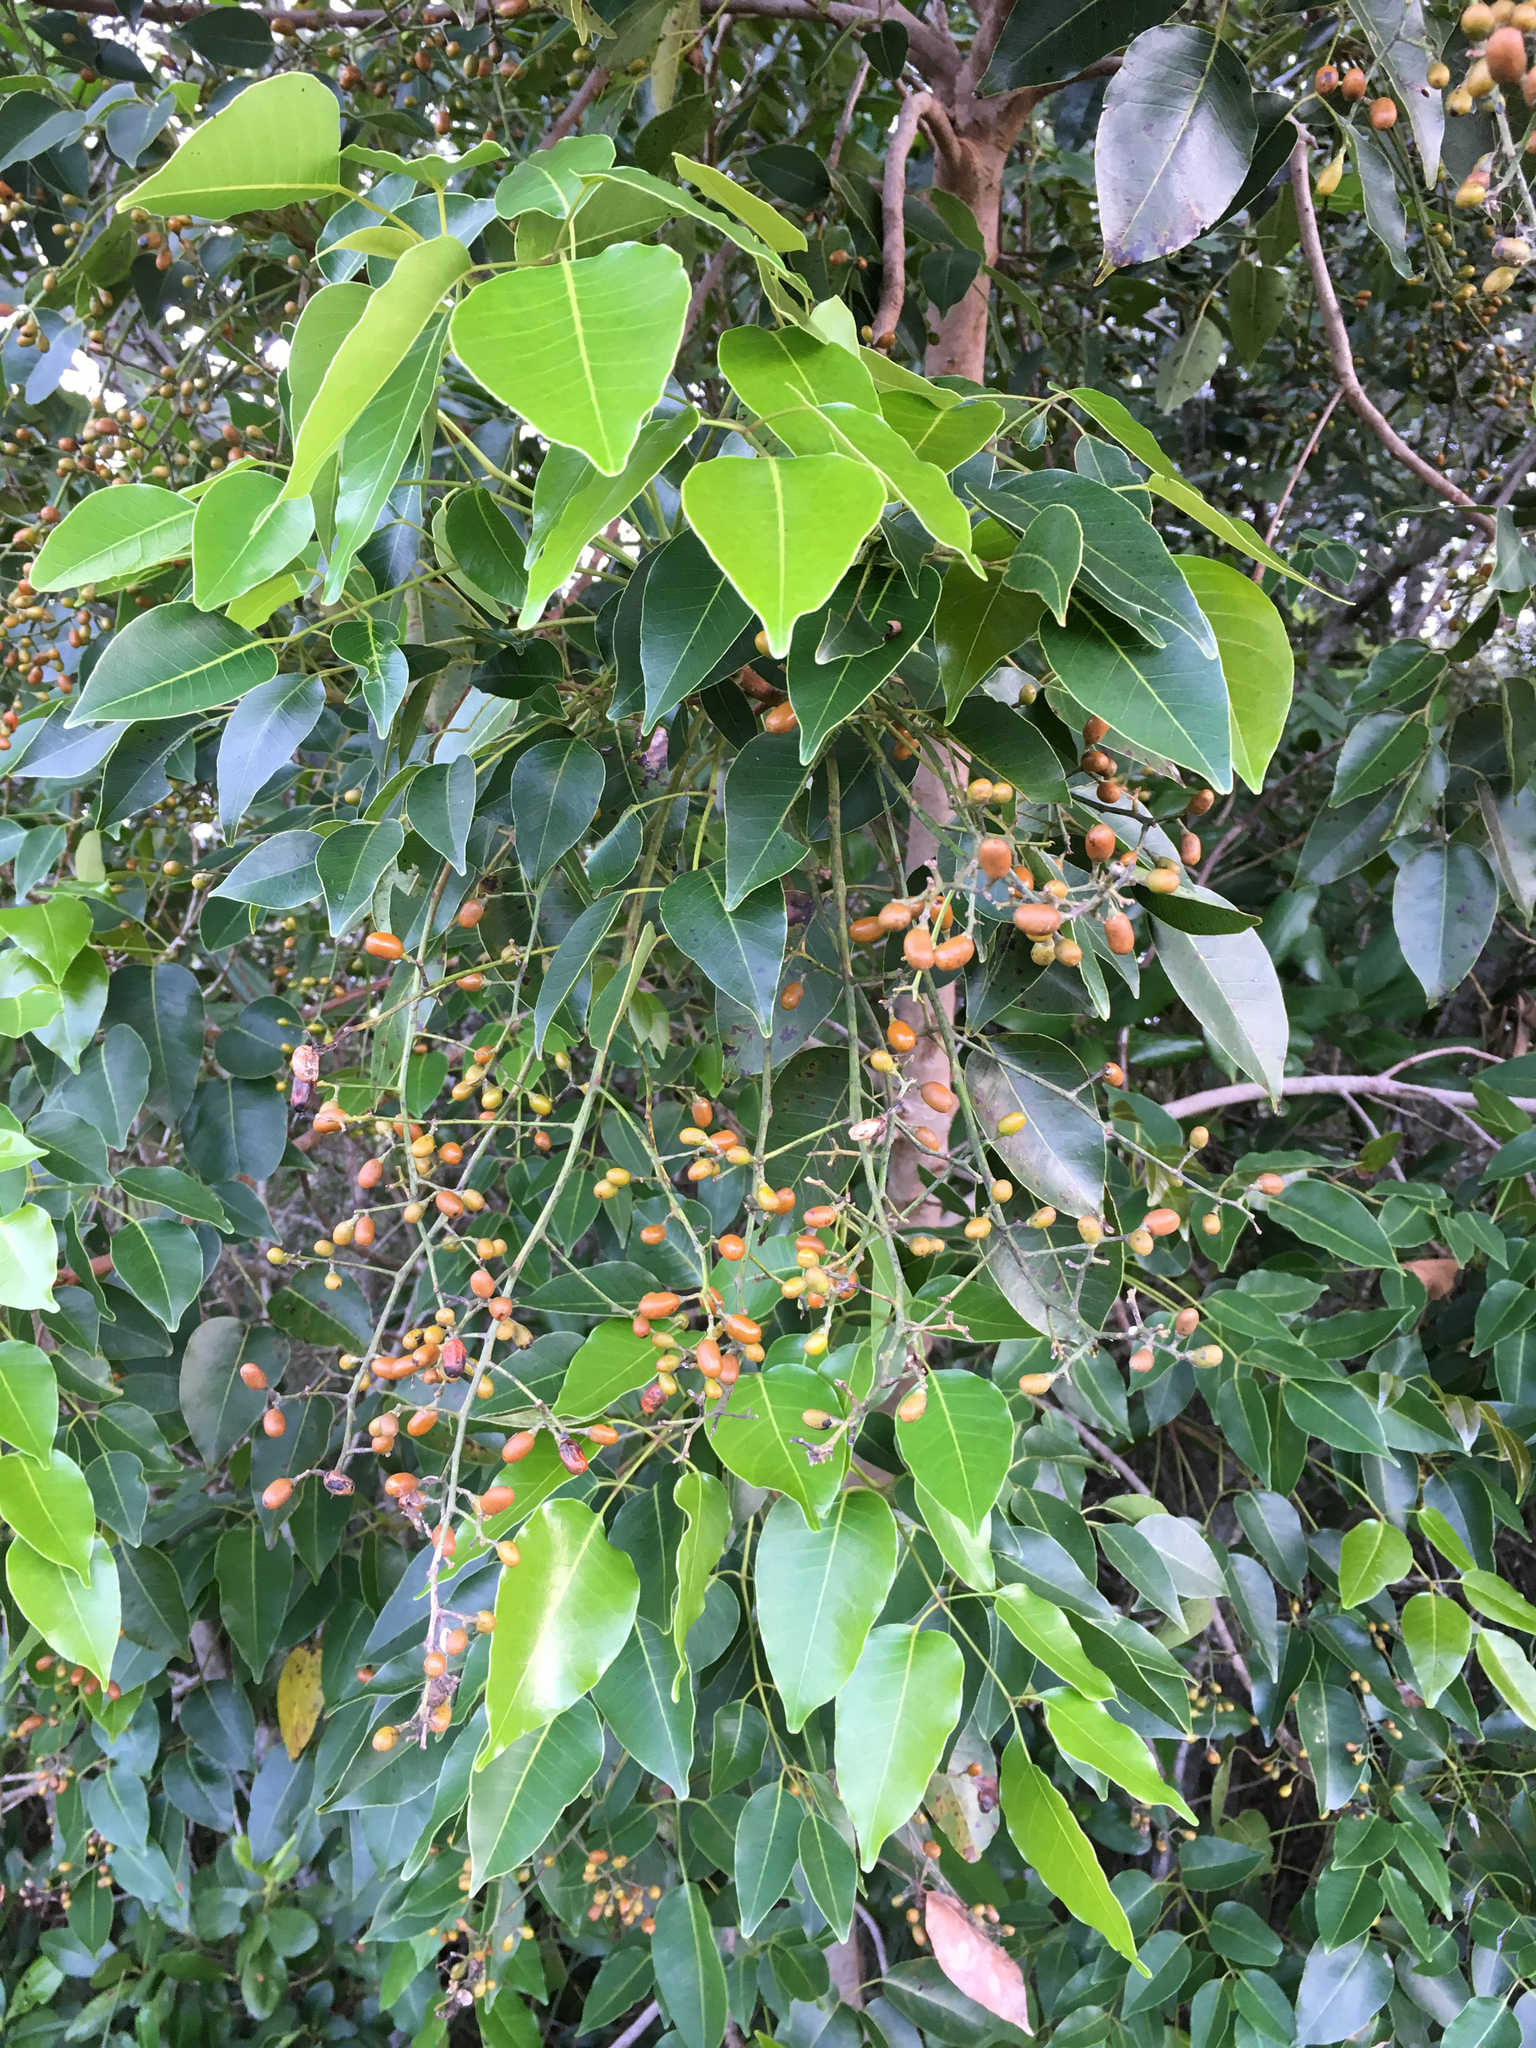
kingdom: Plantae
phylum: Tracheophyta
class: Magnoliopsida
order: Sapindales
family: Anacardiaceae
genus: Metopium
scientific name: Metopium toxiferum
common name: Florida poisontree
